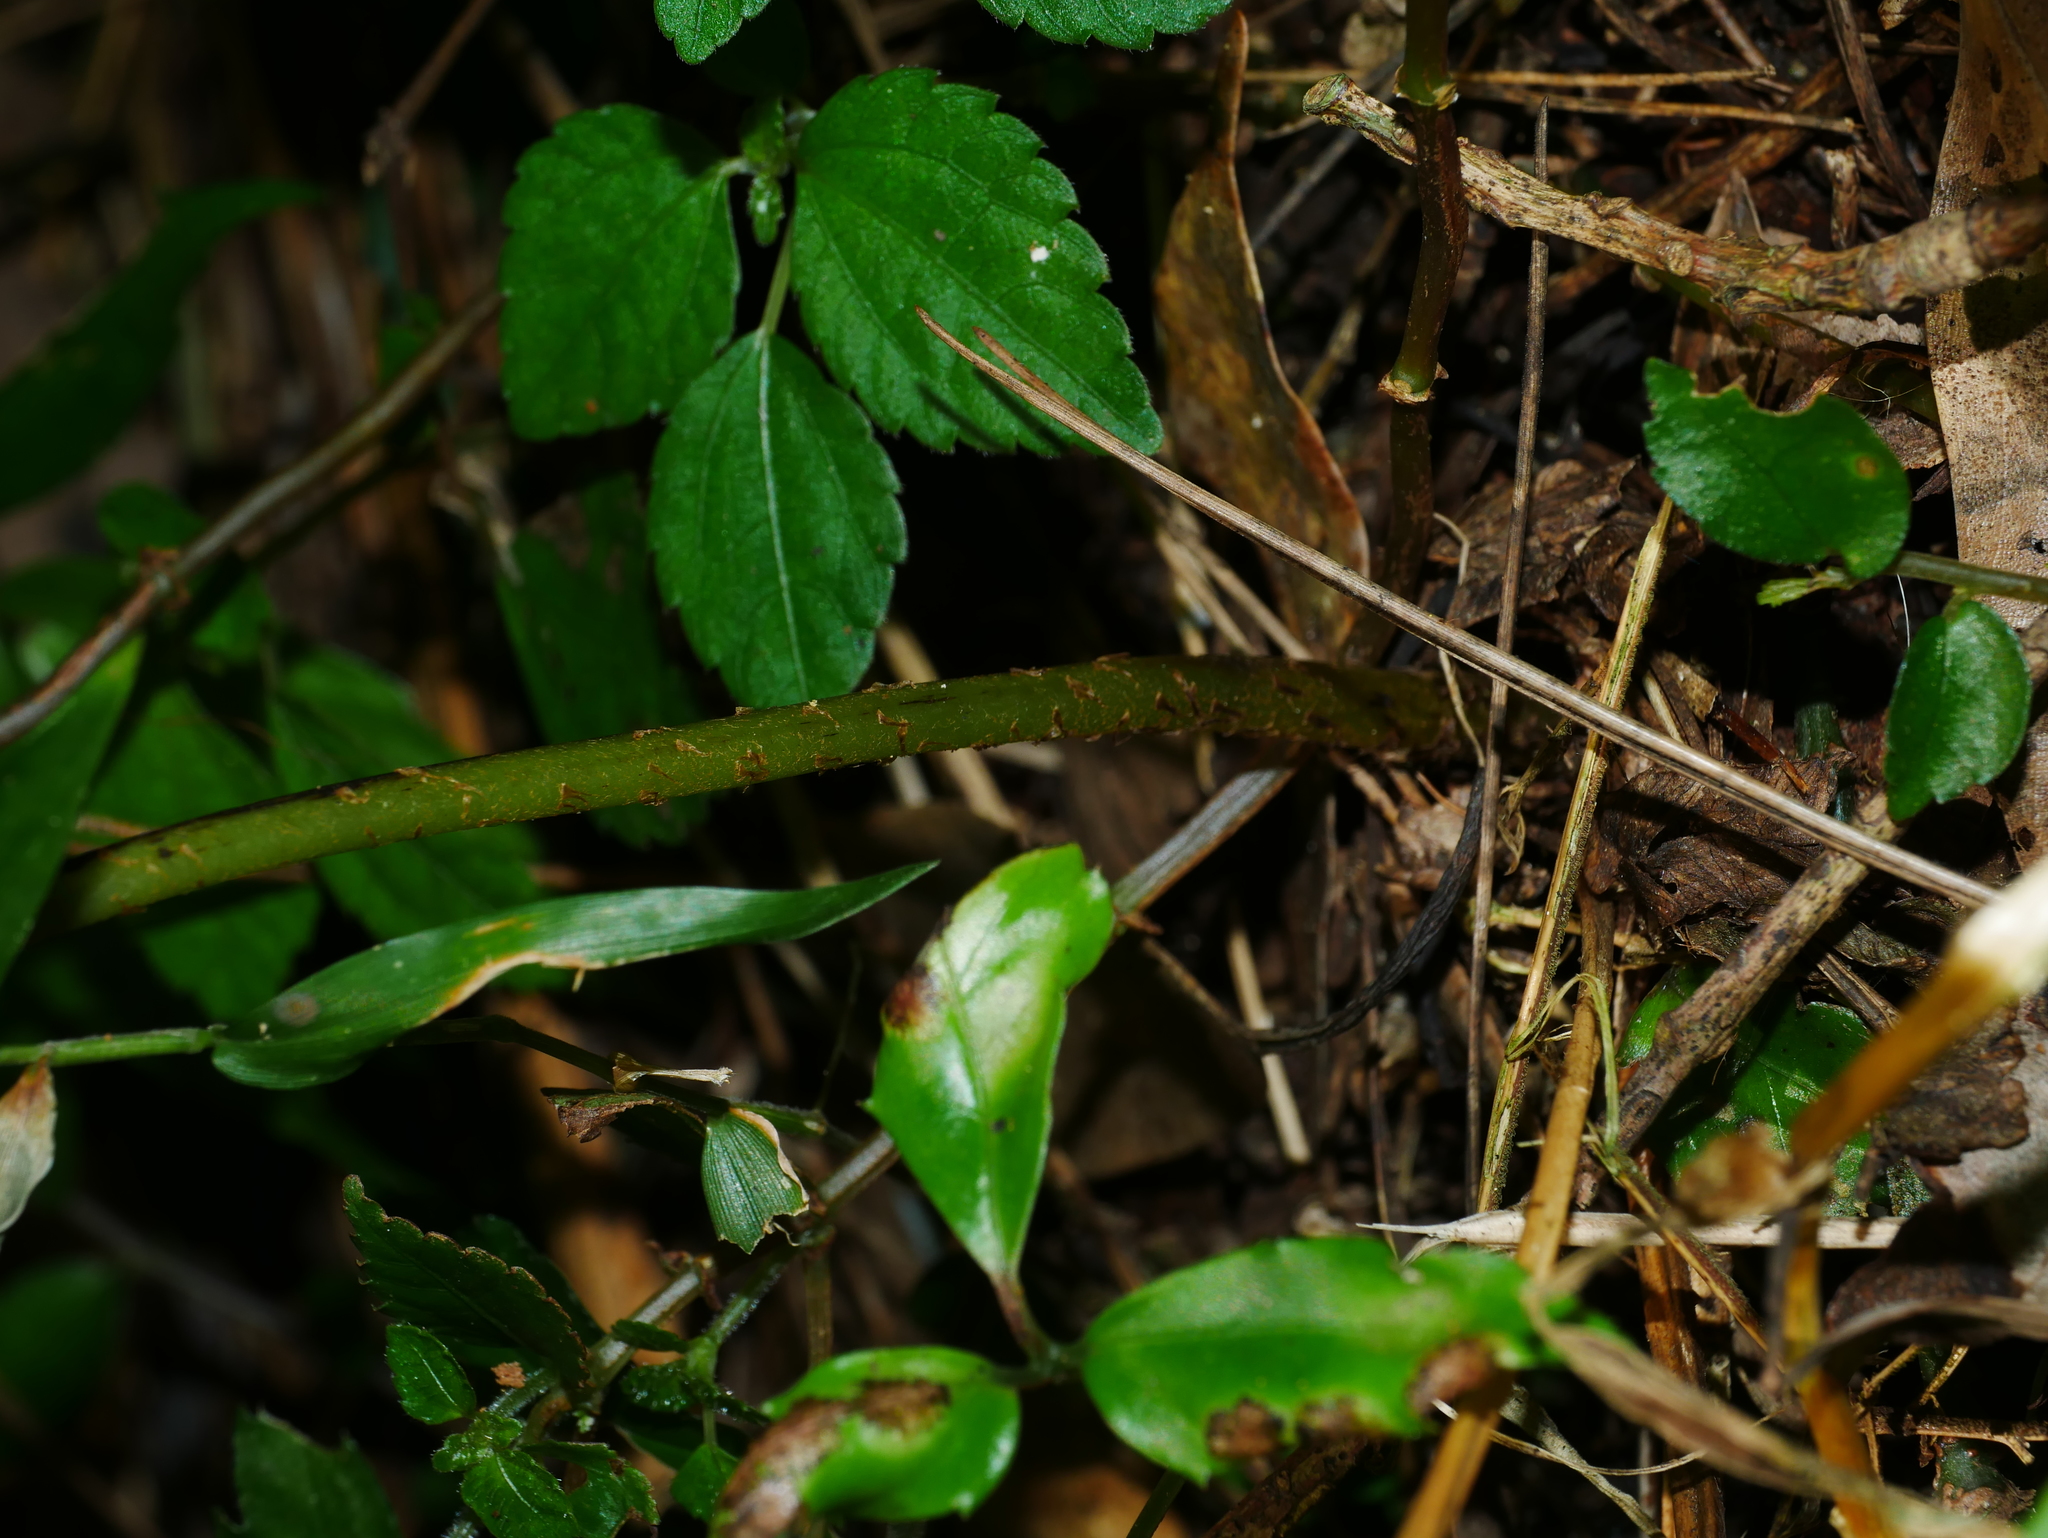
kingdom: Plantae
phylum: Tracheophyta
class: Polypodiopsida
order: Polypodiales
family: Athyriaceae
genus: Athyrium
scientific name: Athyrium silvicola
